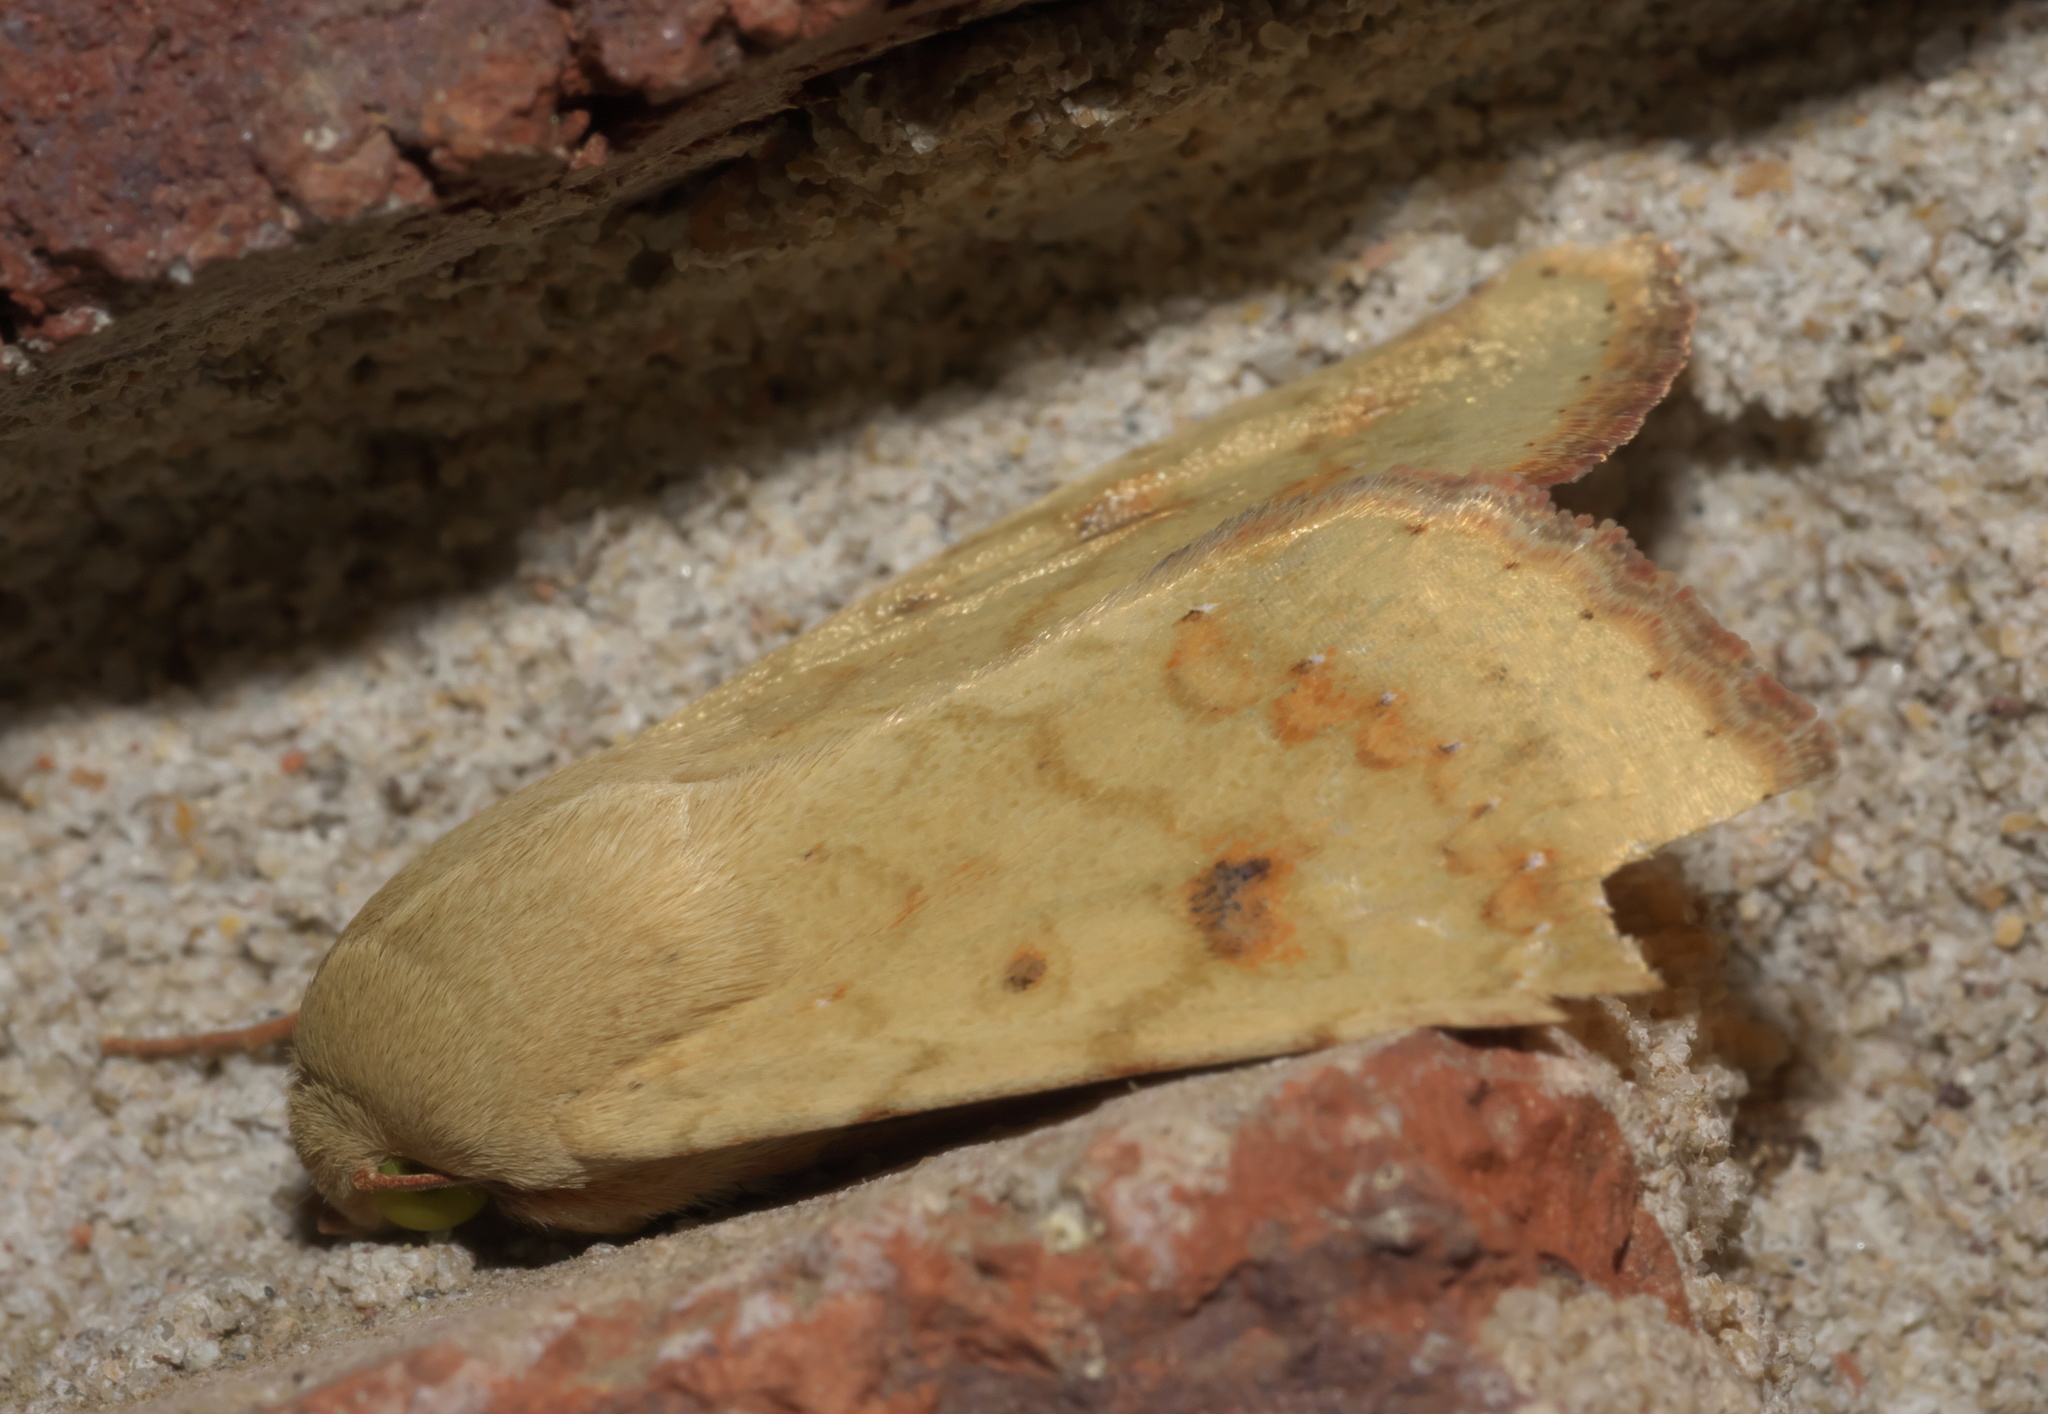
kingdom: Animalia
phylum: Arthropoda
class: Insecta
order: Lepidoptera
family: Noctuidae
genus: Helicoverpa
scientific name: Helicoverpa zea
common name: Bollworm
